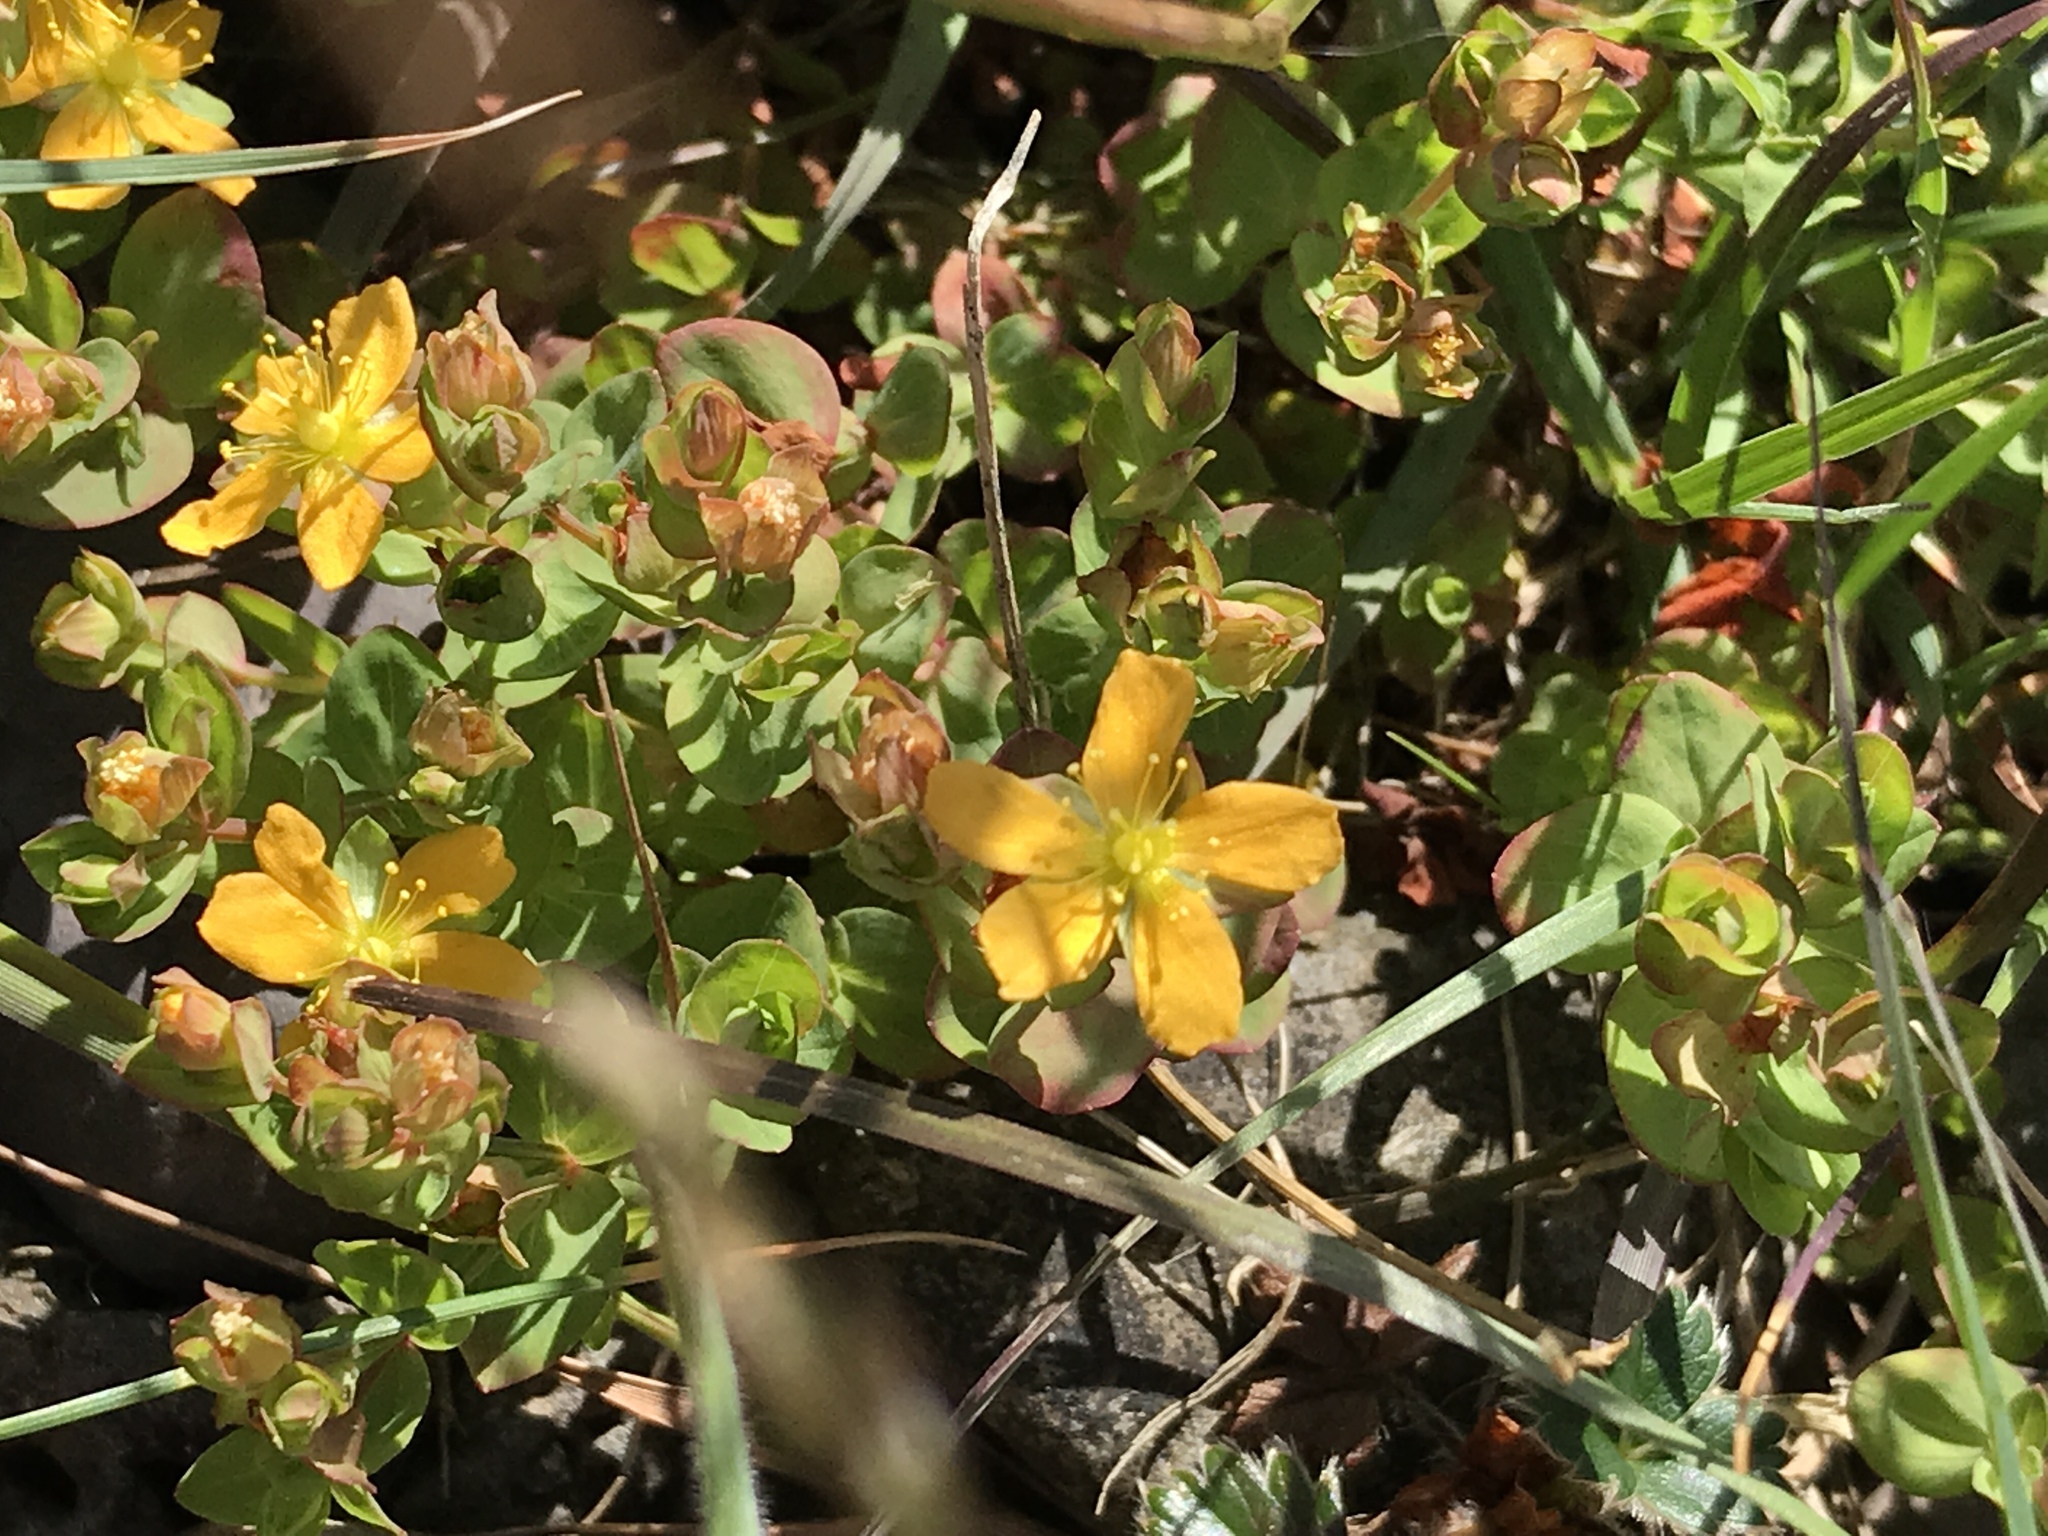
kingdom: Plantae
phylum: Tracheophyta
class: Magnoliopsida
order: Malpighiales
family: Hypericaceae
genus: Hypericum
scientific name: Hypericum anagalloides
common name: Bog st. john's-wort
